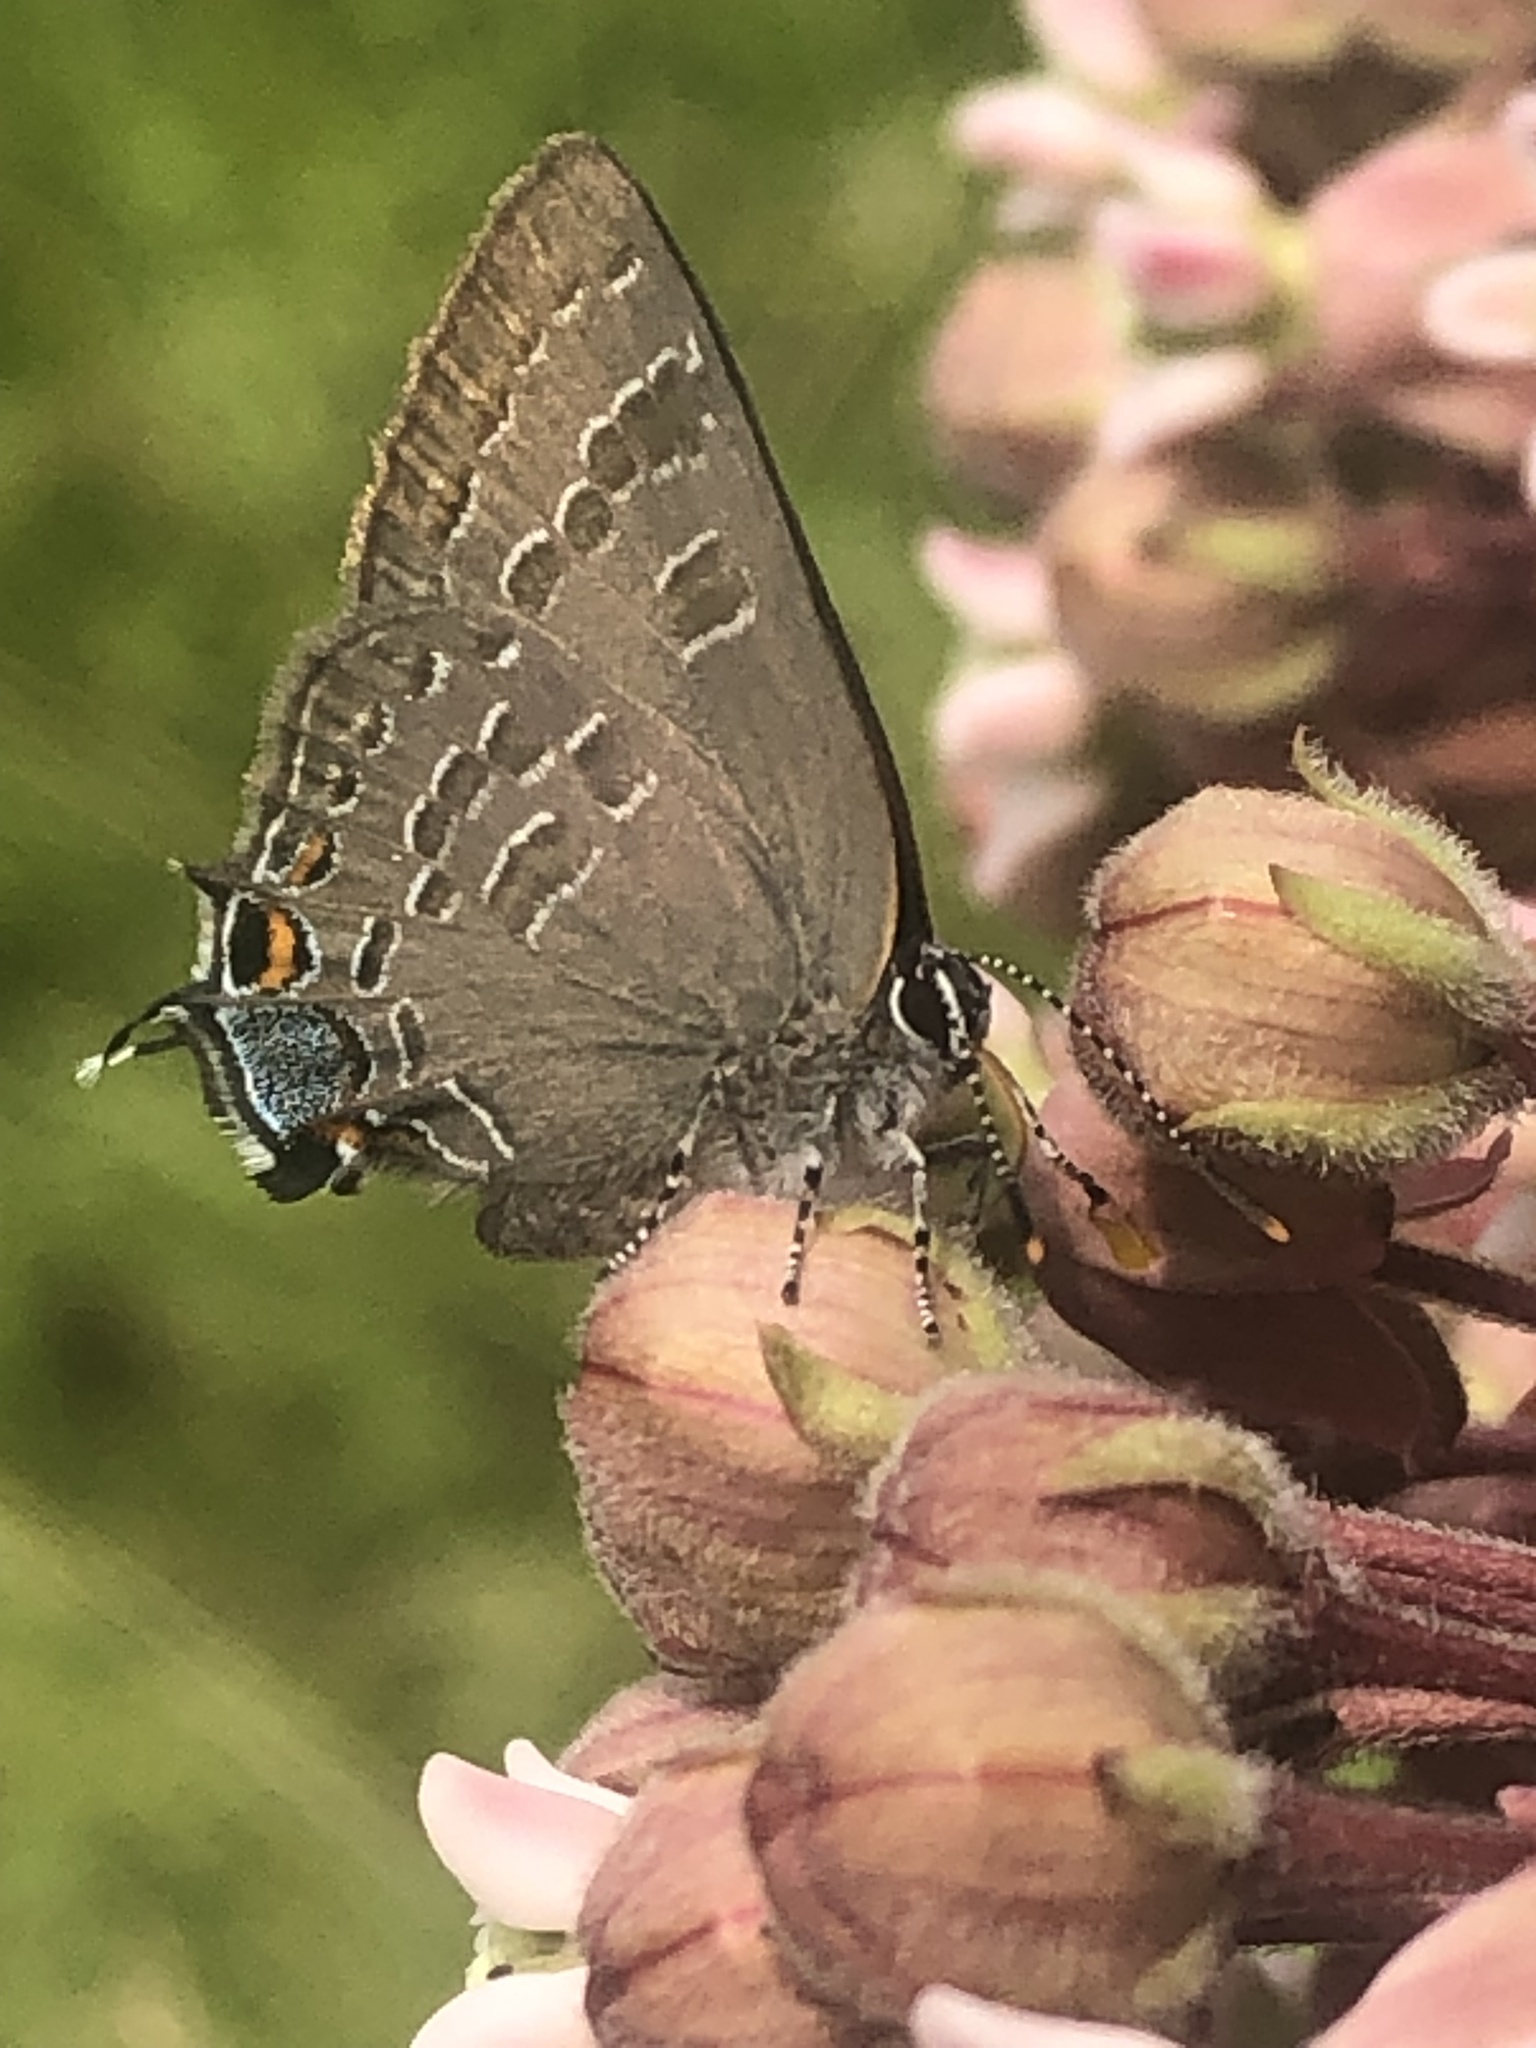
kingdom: Animalia
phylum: Arthropoda
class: Insecta
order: Lepidoptera
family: Lycaenidae
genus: Strymon
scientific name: Strymon caryaevorus
